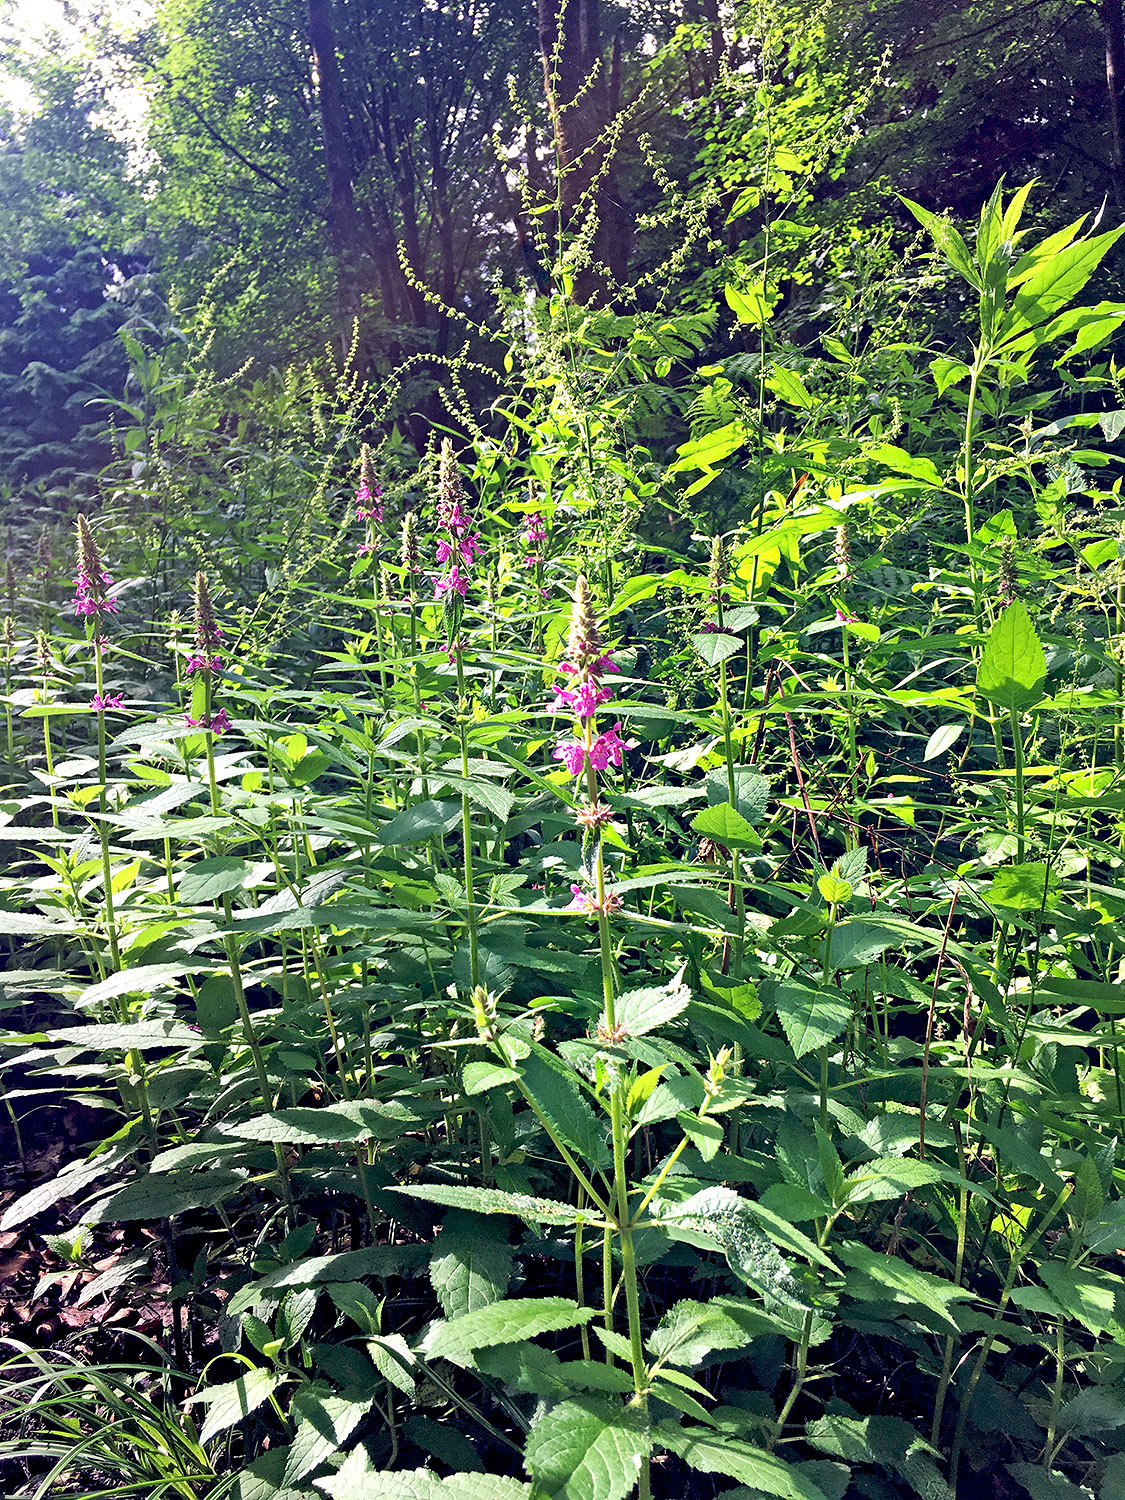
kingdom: Plantae
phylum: Tracheophyta
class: Magnoliopsida
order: Lamiales
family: Lamiaceae
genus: Stachys
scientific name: Stachys sylvatica
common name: Hedge woundwort
